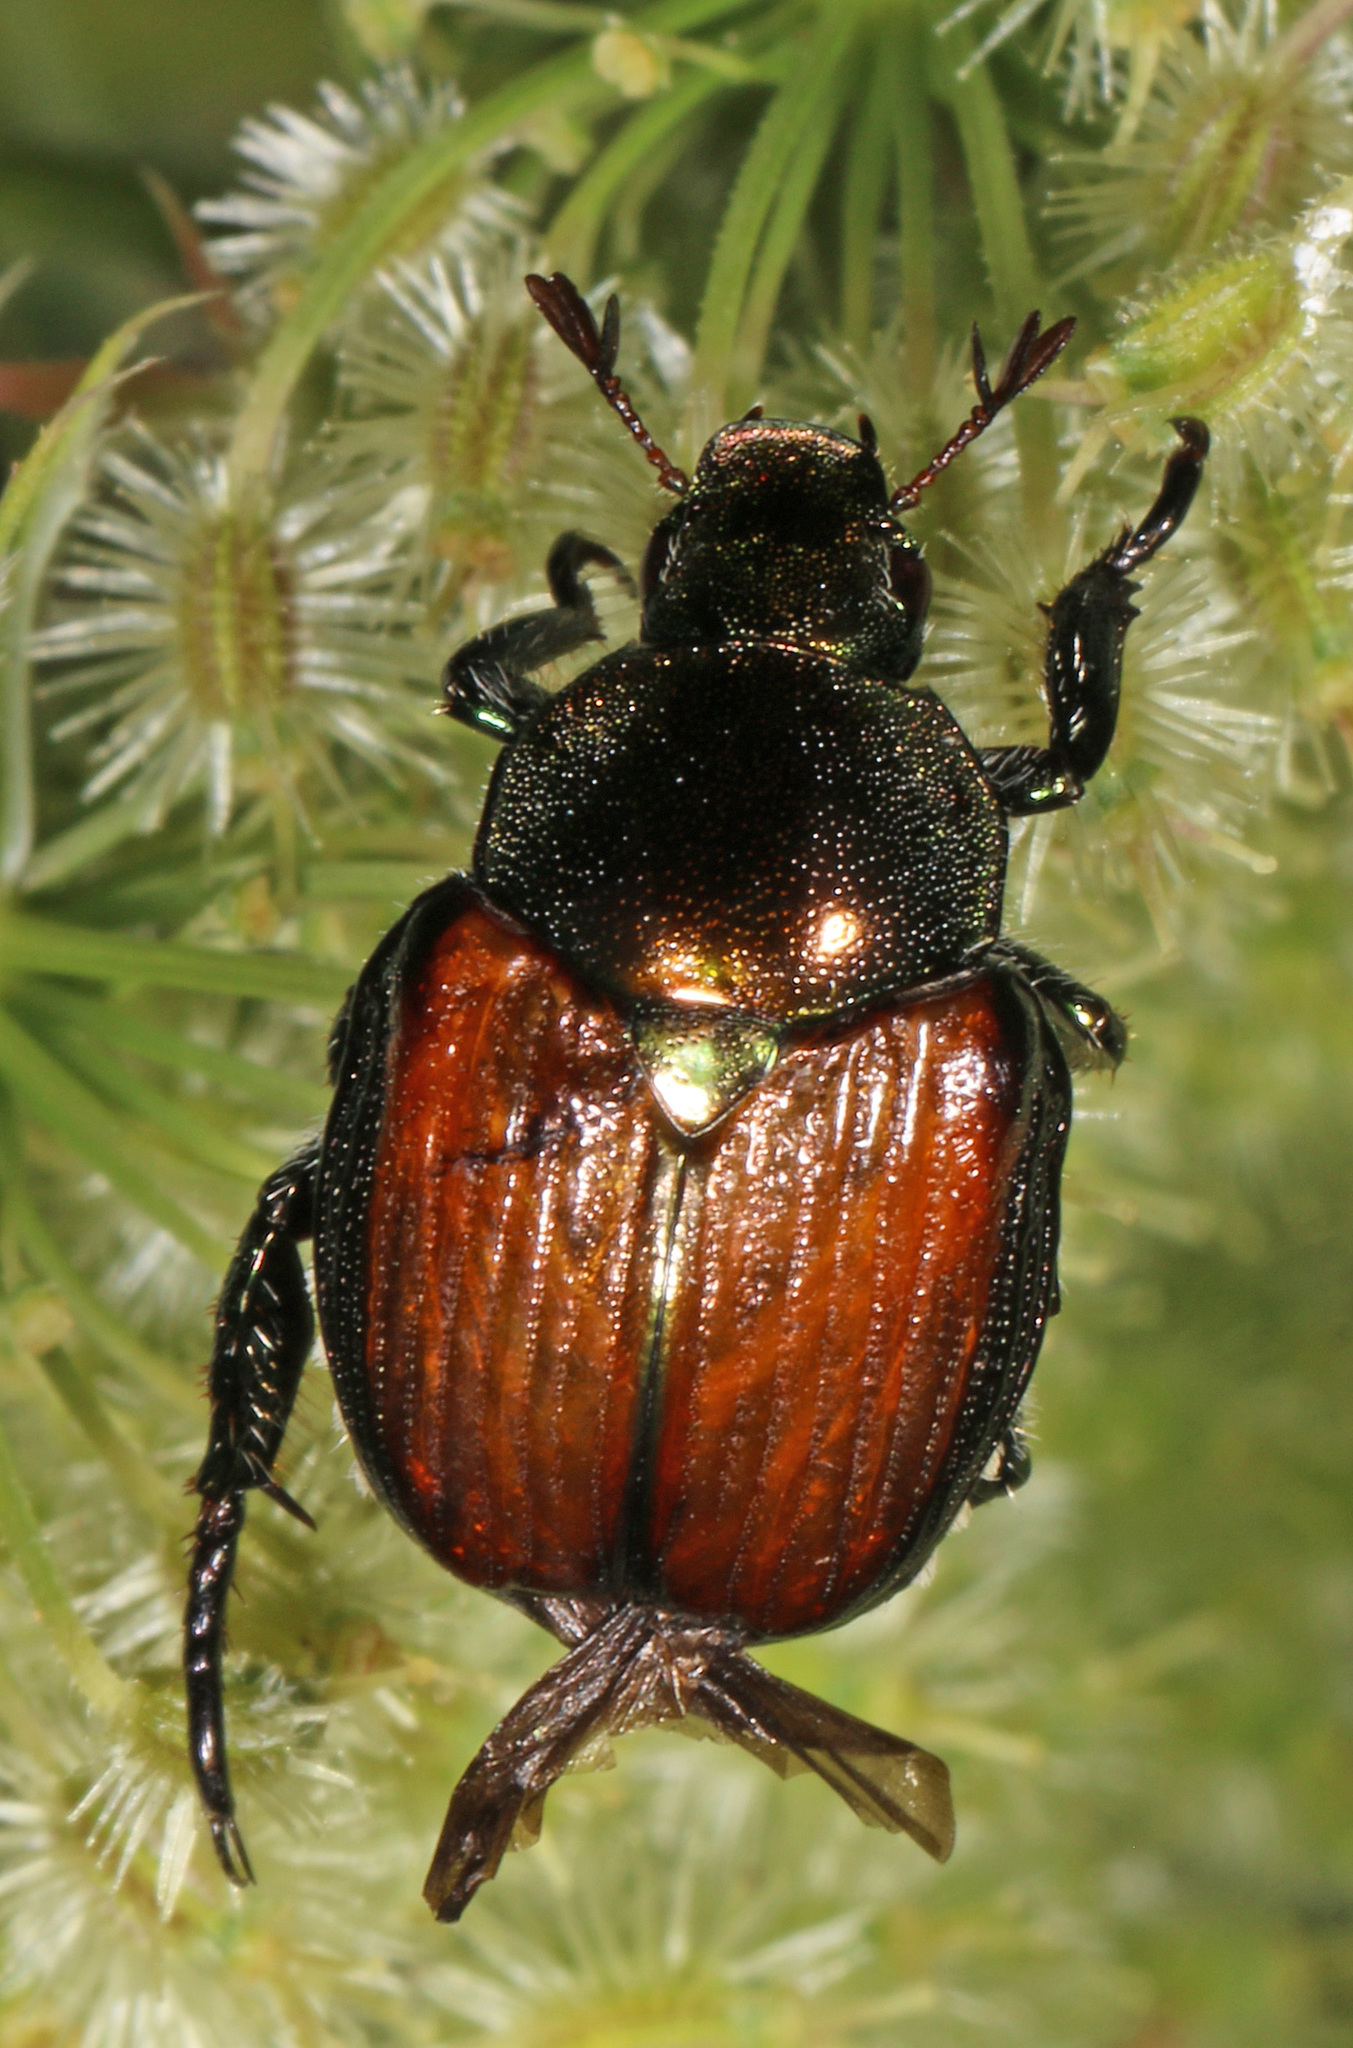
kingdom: Animalia
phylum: Arthropoda
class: Insecta
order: Coleoptera
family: Scarabaeidae
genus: Popillia
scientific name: Popillia japonica
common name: Japanese beetle
